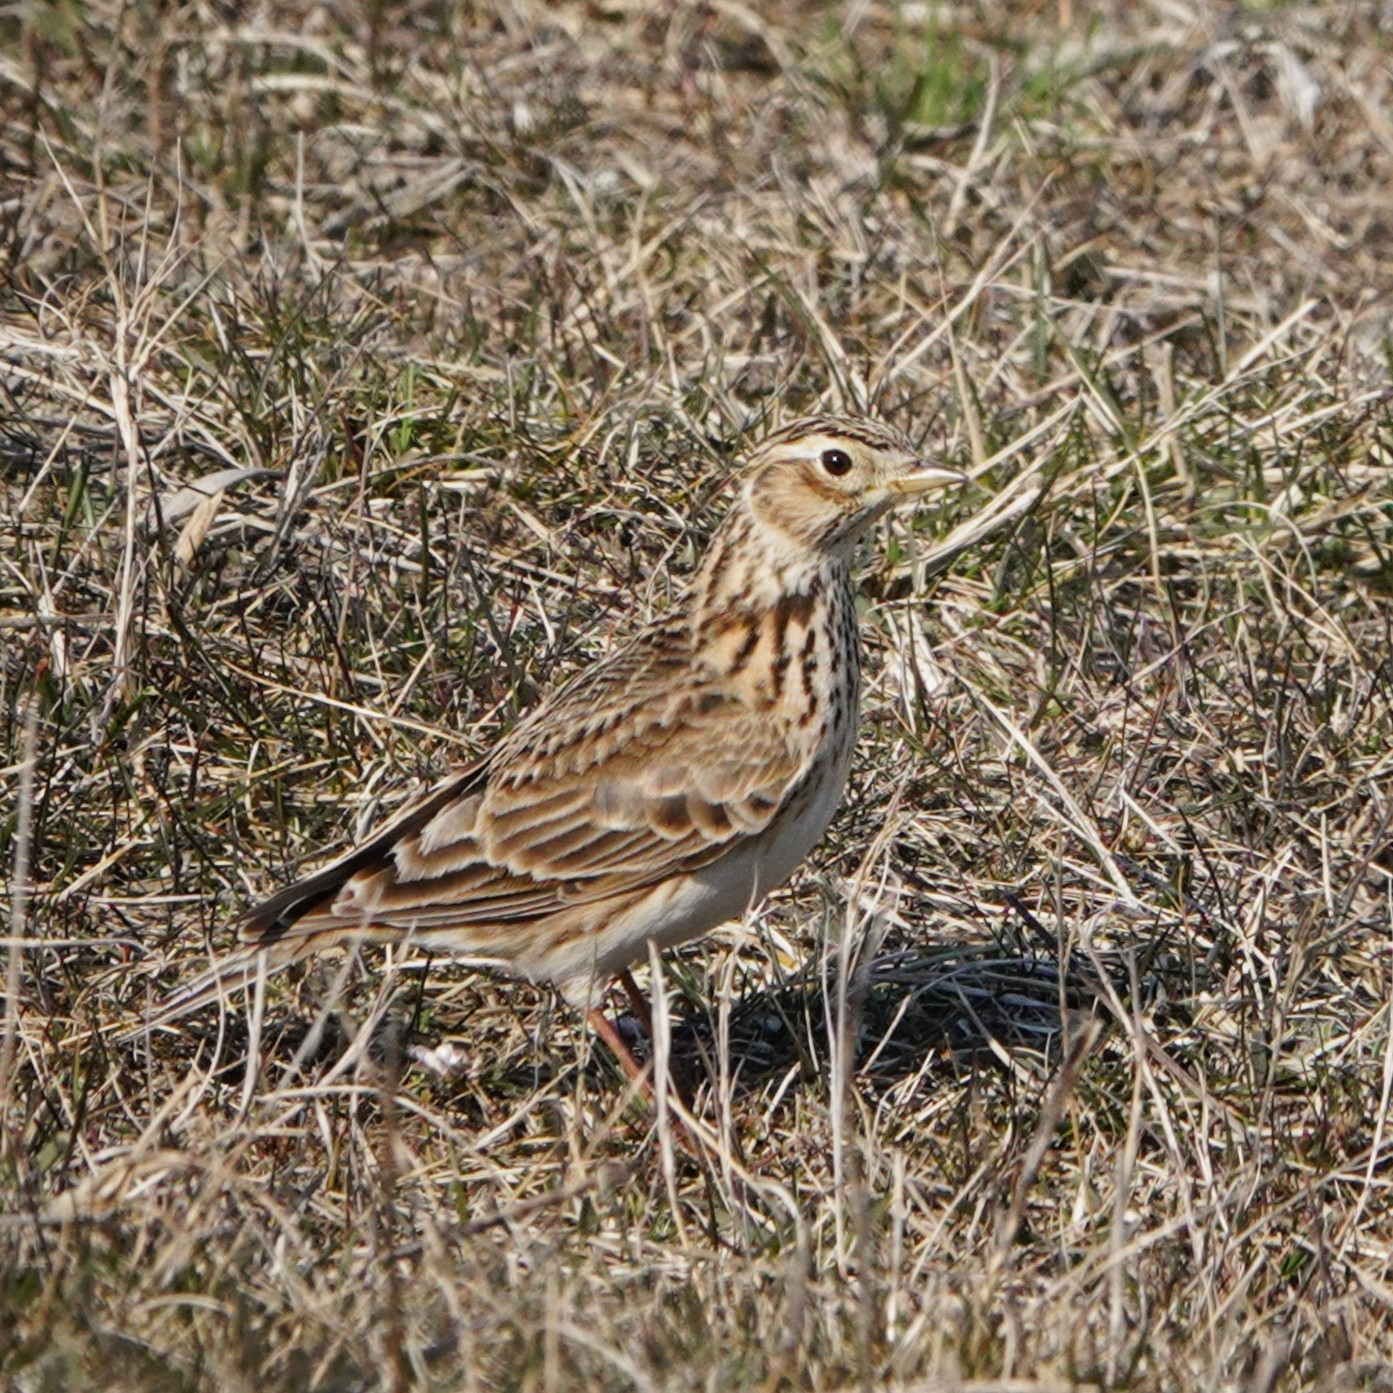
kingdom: Animalia
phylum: Chordata
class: Aves
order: Passeriformes
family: Alaudidae
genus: Alauda
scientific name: Alauda arvensis
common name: Eurasian skylark
